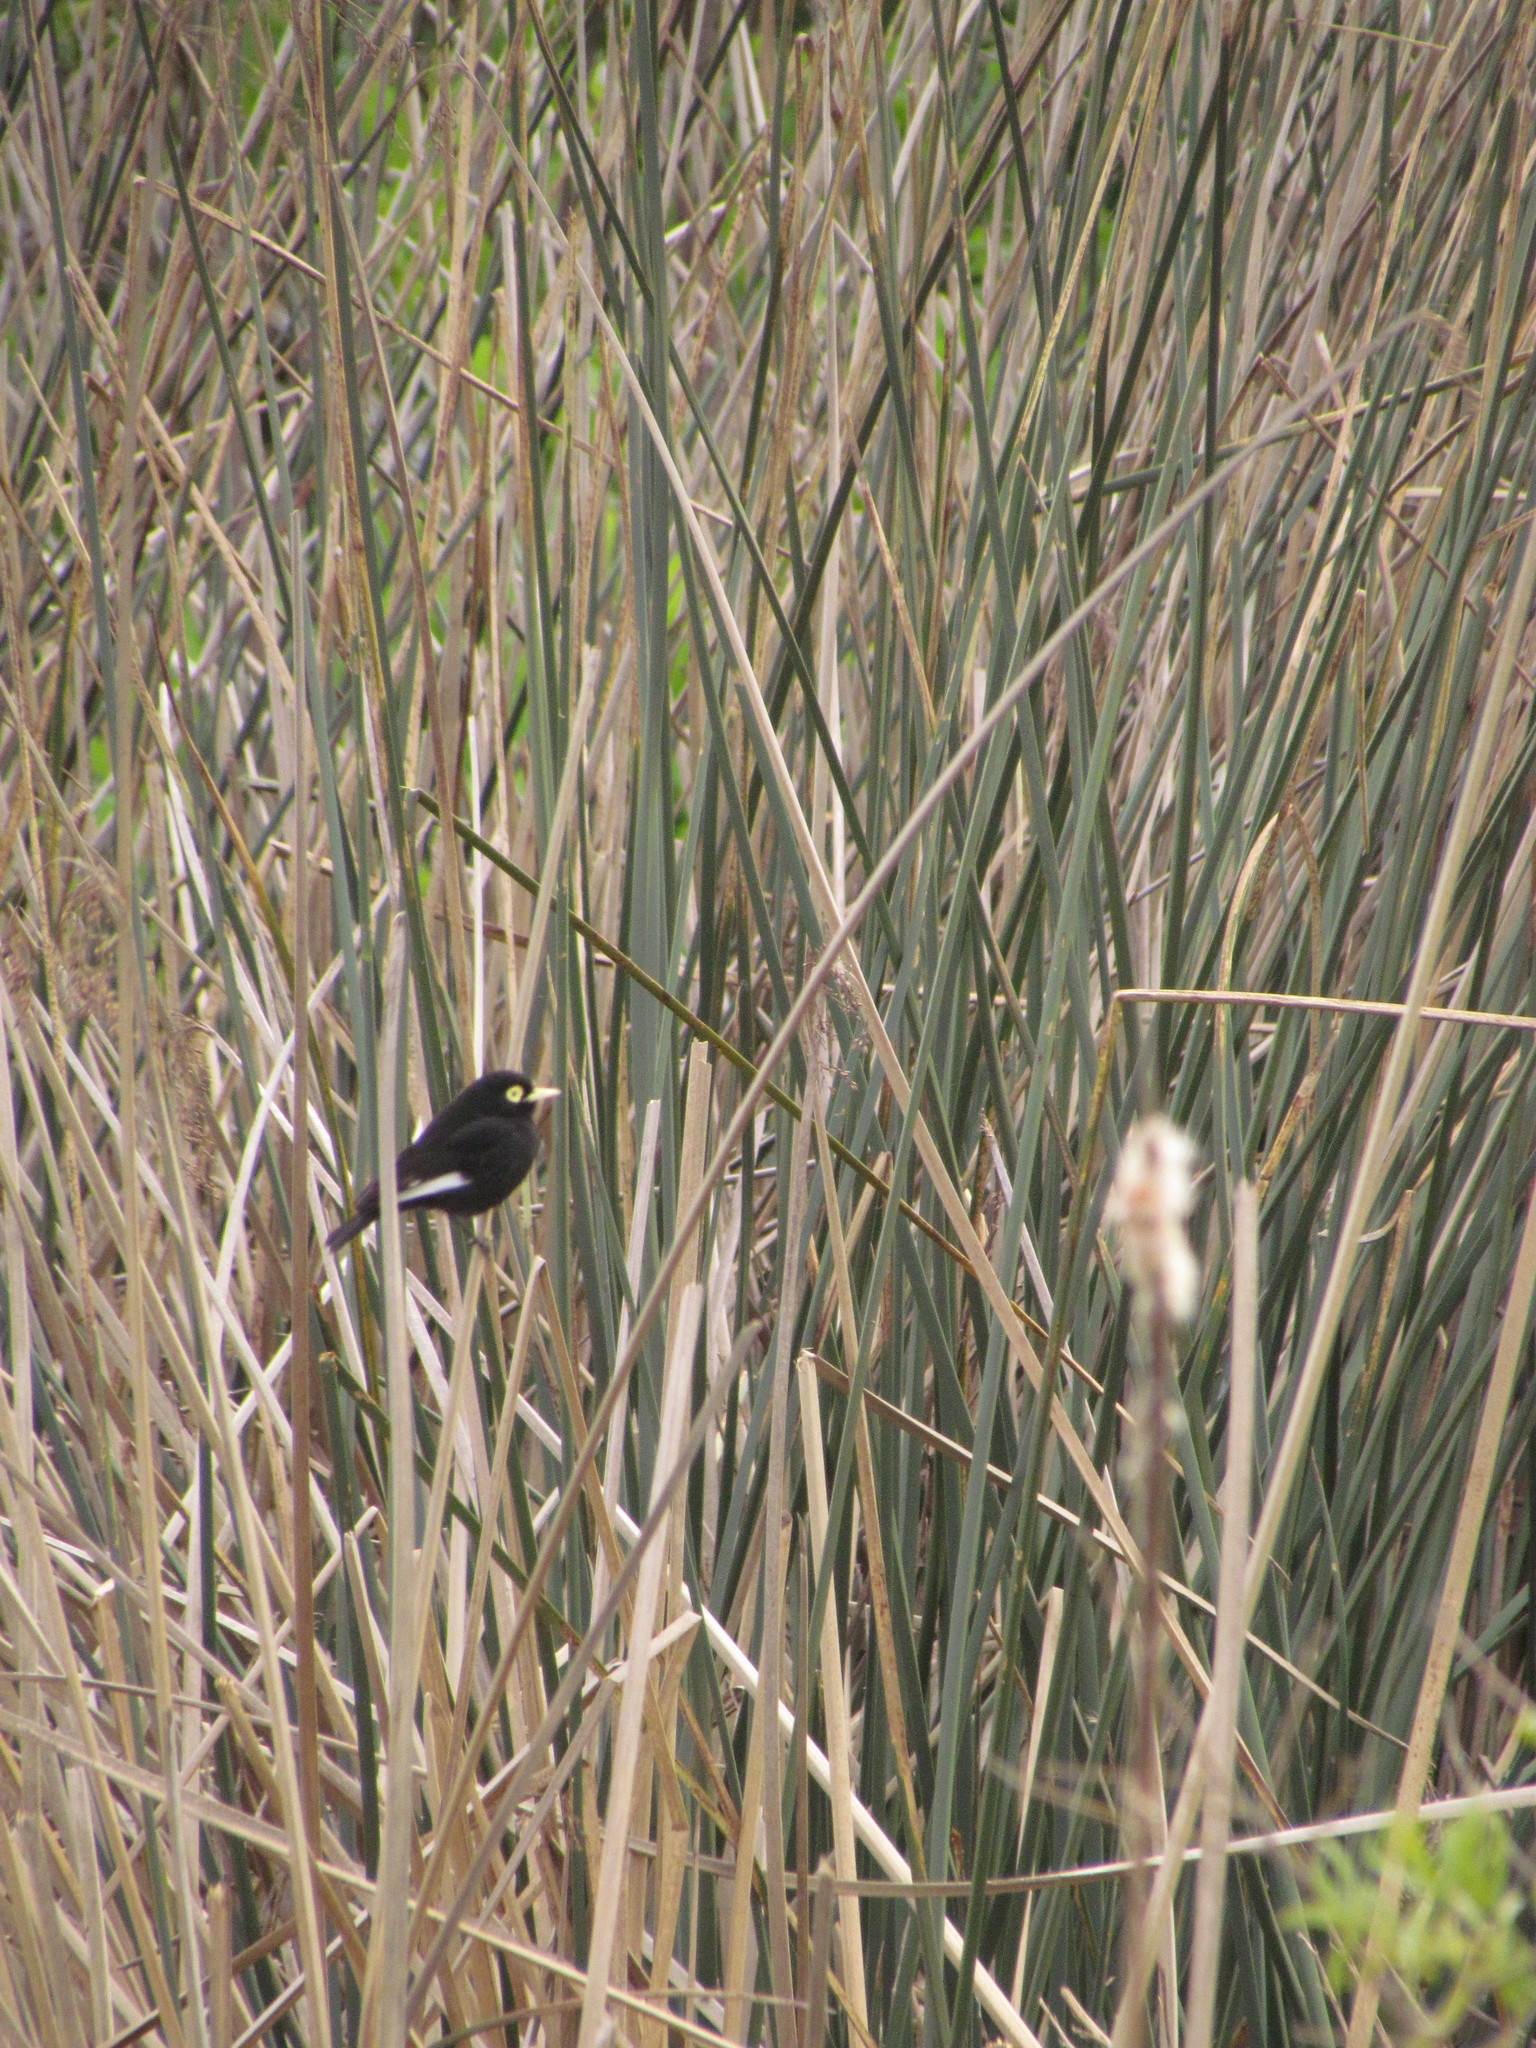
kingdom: Animalia
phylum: Chordata
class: Aves
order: Passeriformes
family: Tyrannidae
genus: Hymenops
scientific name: Hymenops perspicillatus
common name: Spectacled tyrant
